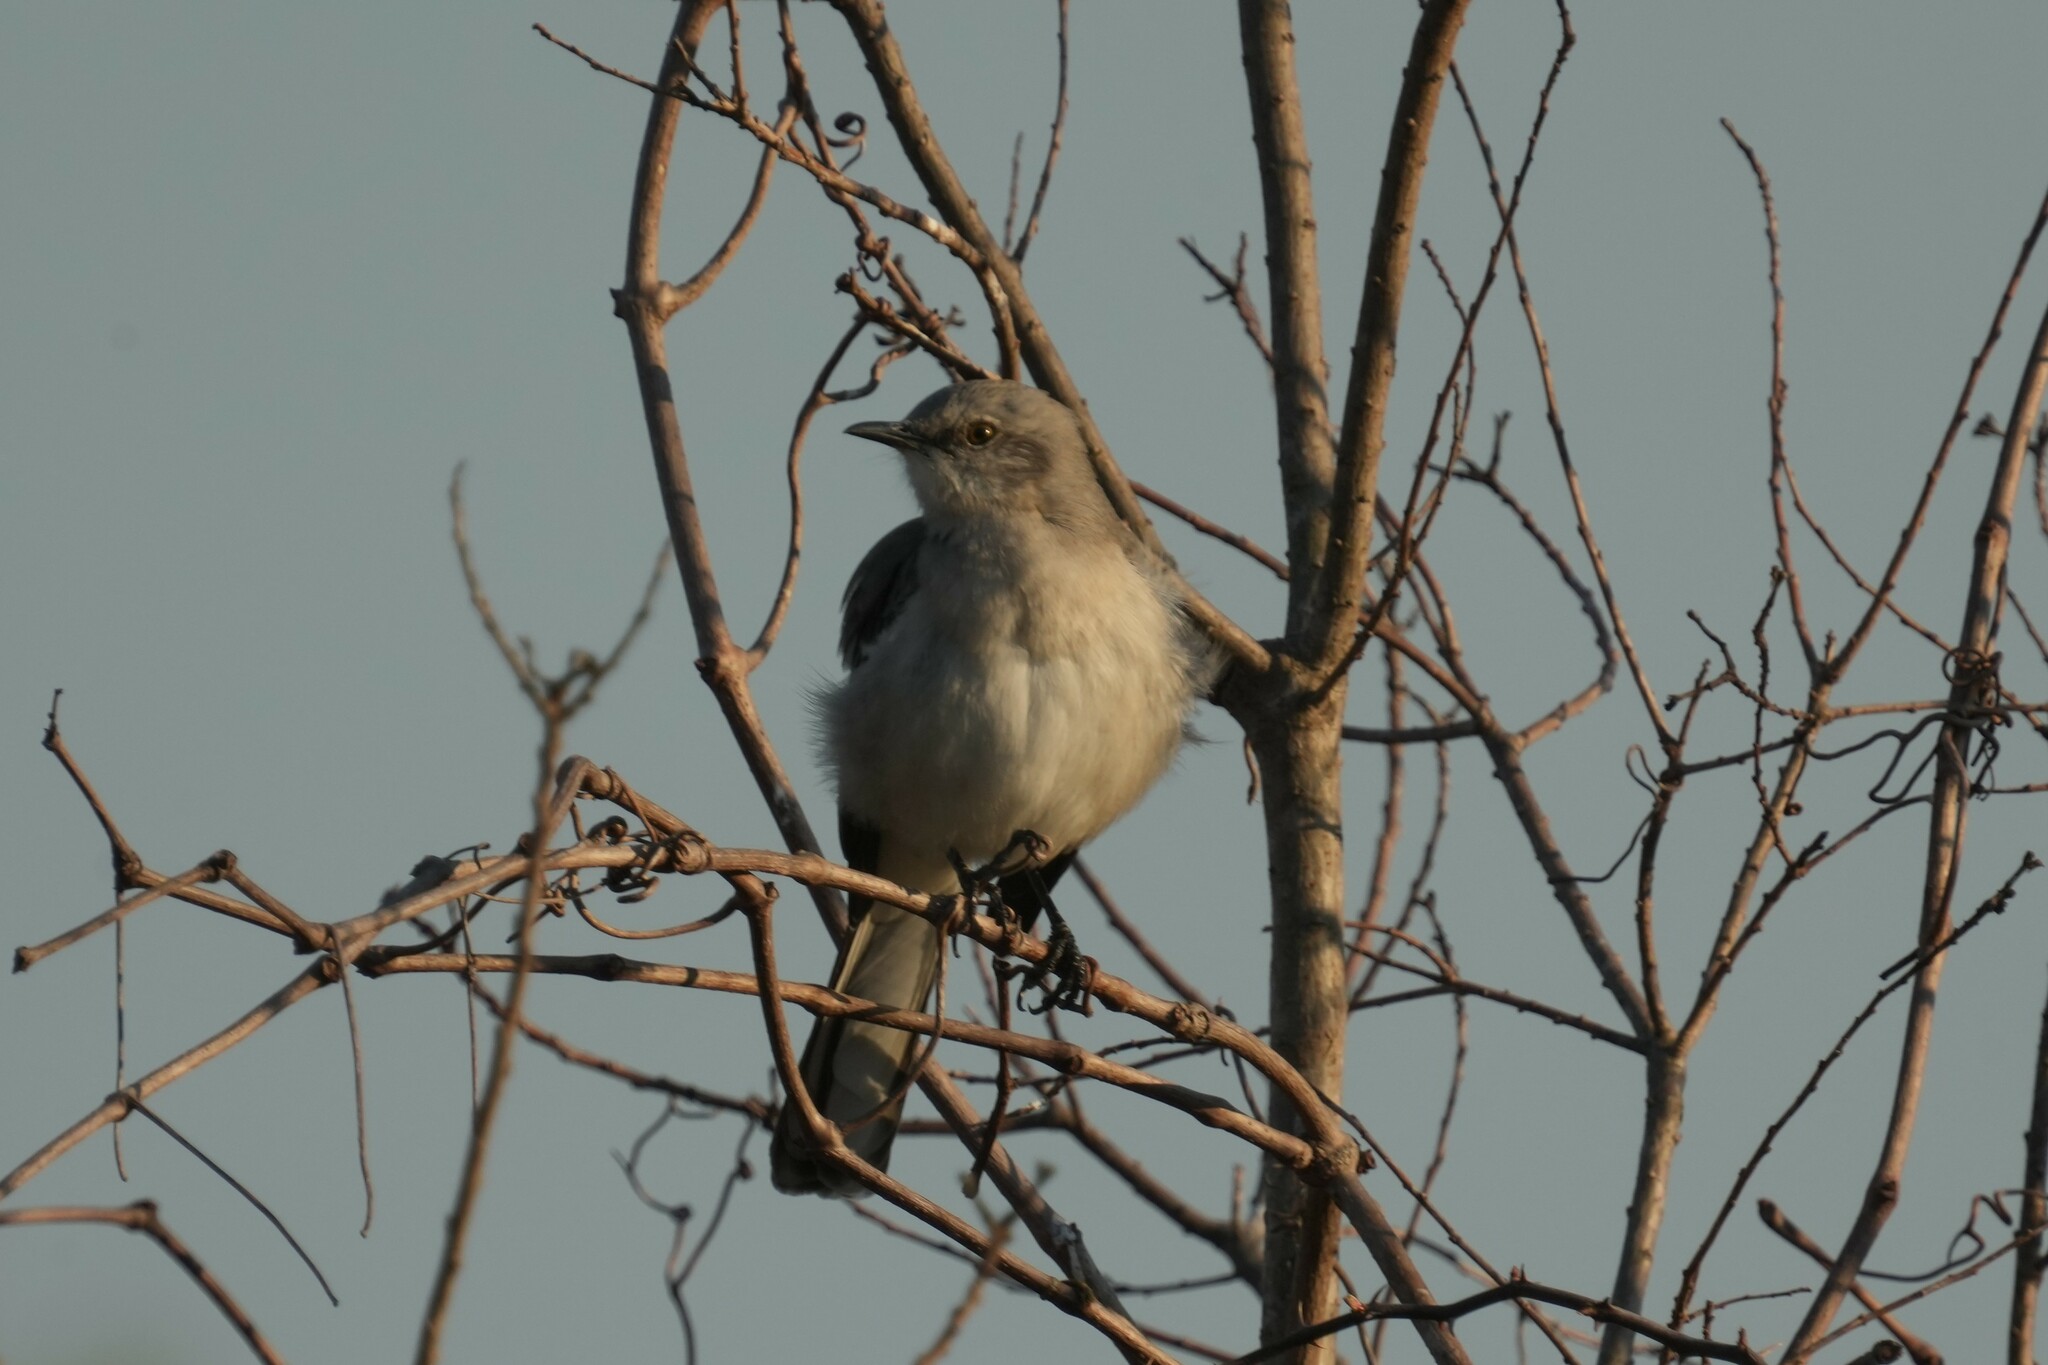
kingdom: Animalia
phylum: Chordata
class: Aves
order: Passeriformes
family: Mimidae
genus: Mimus
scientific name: Mimus polyglottos
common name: Northern mockingbird
